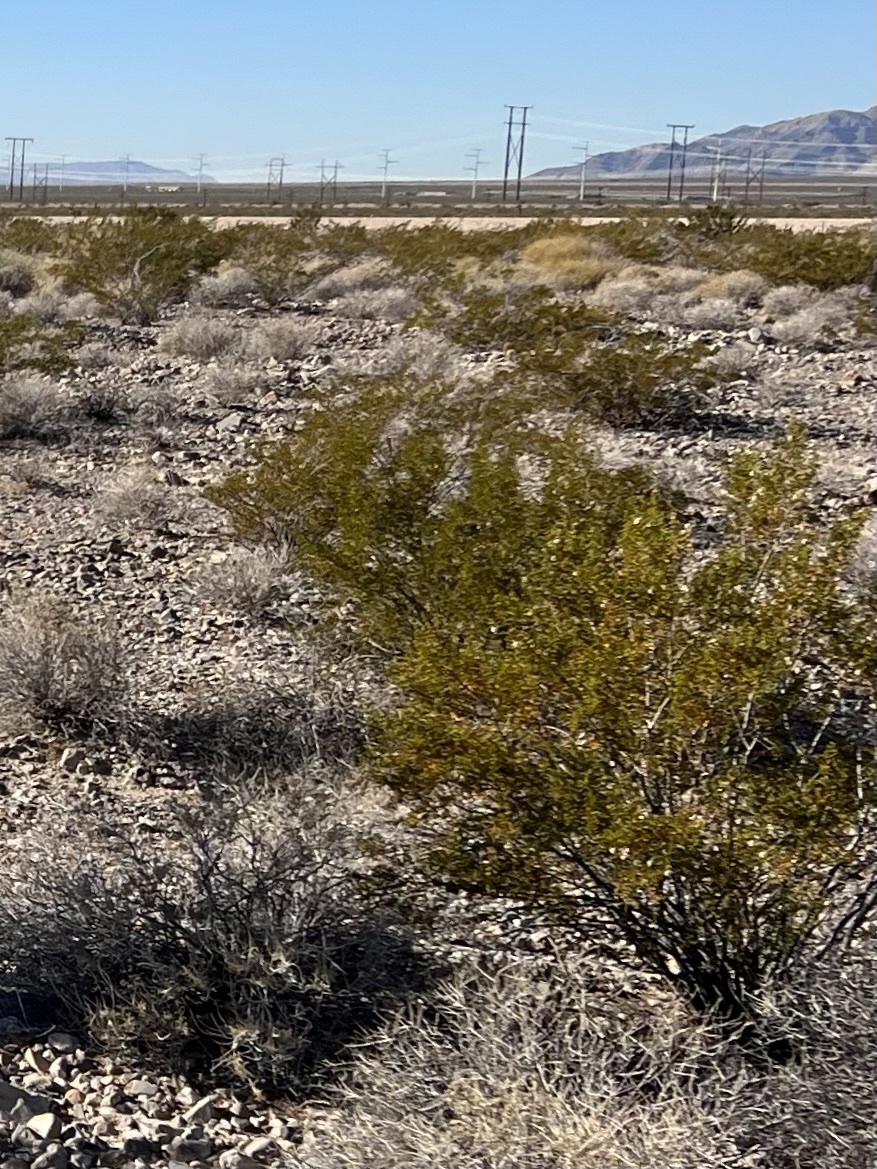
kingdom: Plantae
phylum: Tracheophyta
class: Magnoliopsida
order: Zygophyllales
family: Zygophyllaceae
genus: Larrea
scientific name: Larrea tridentata
